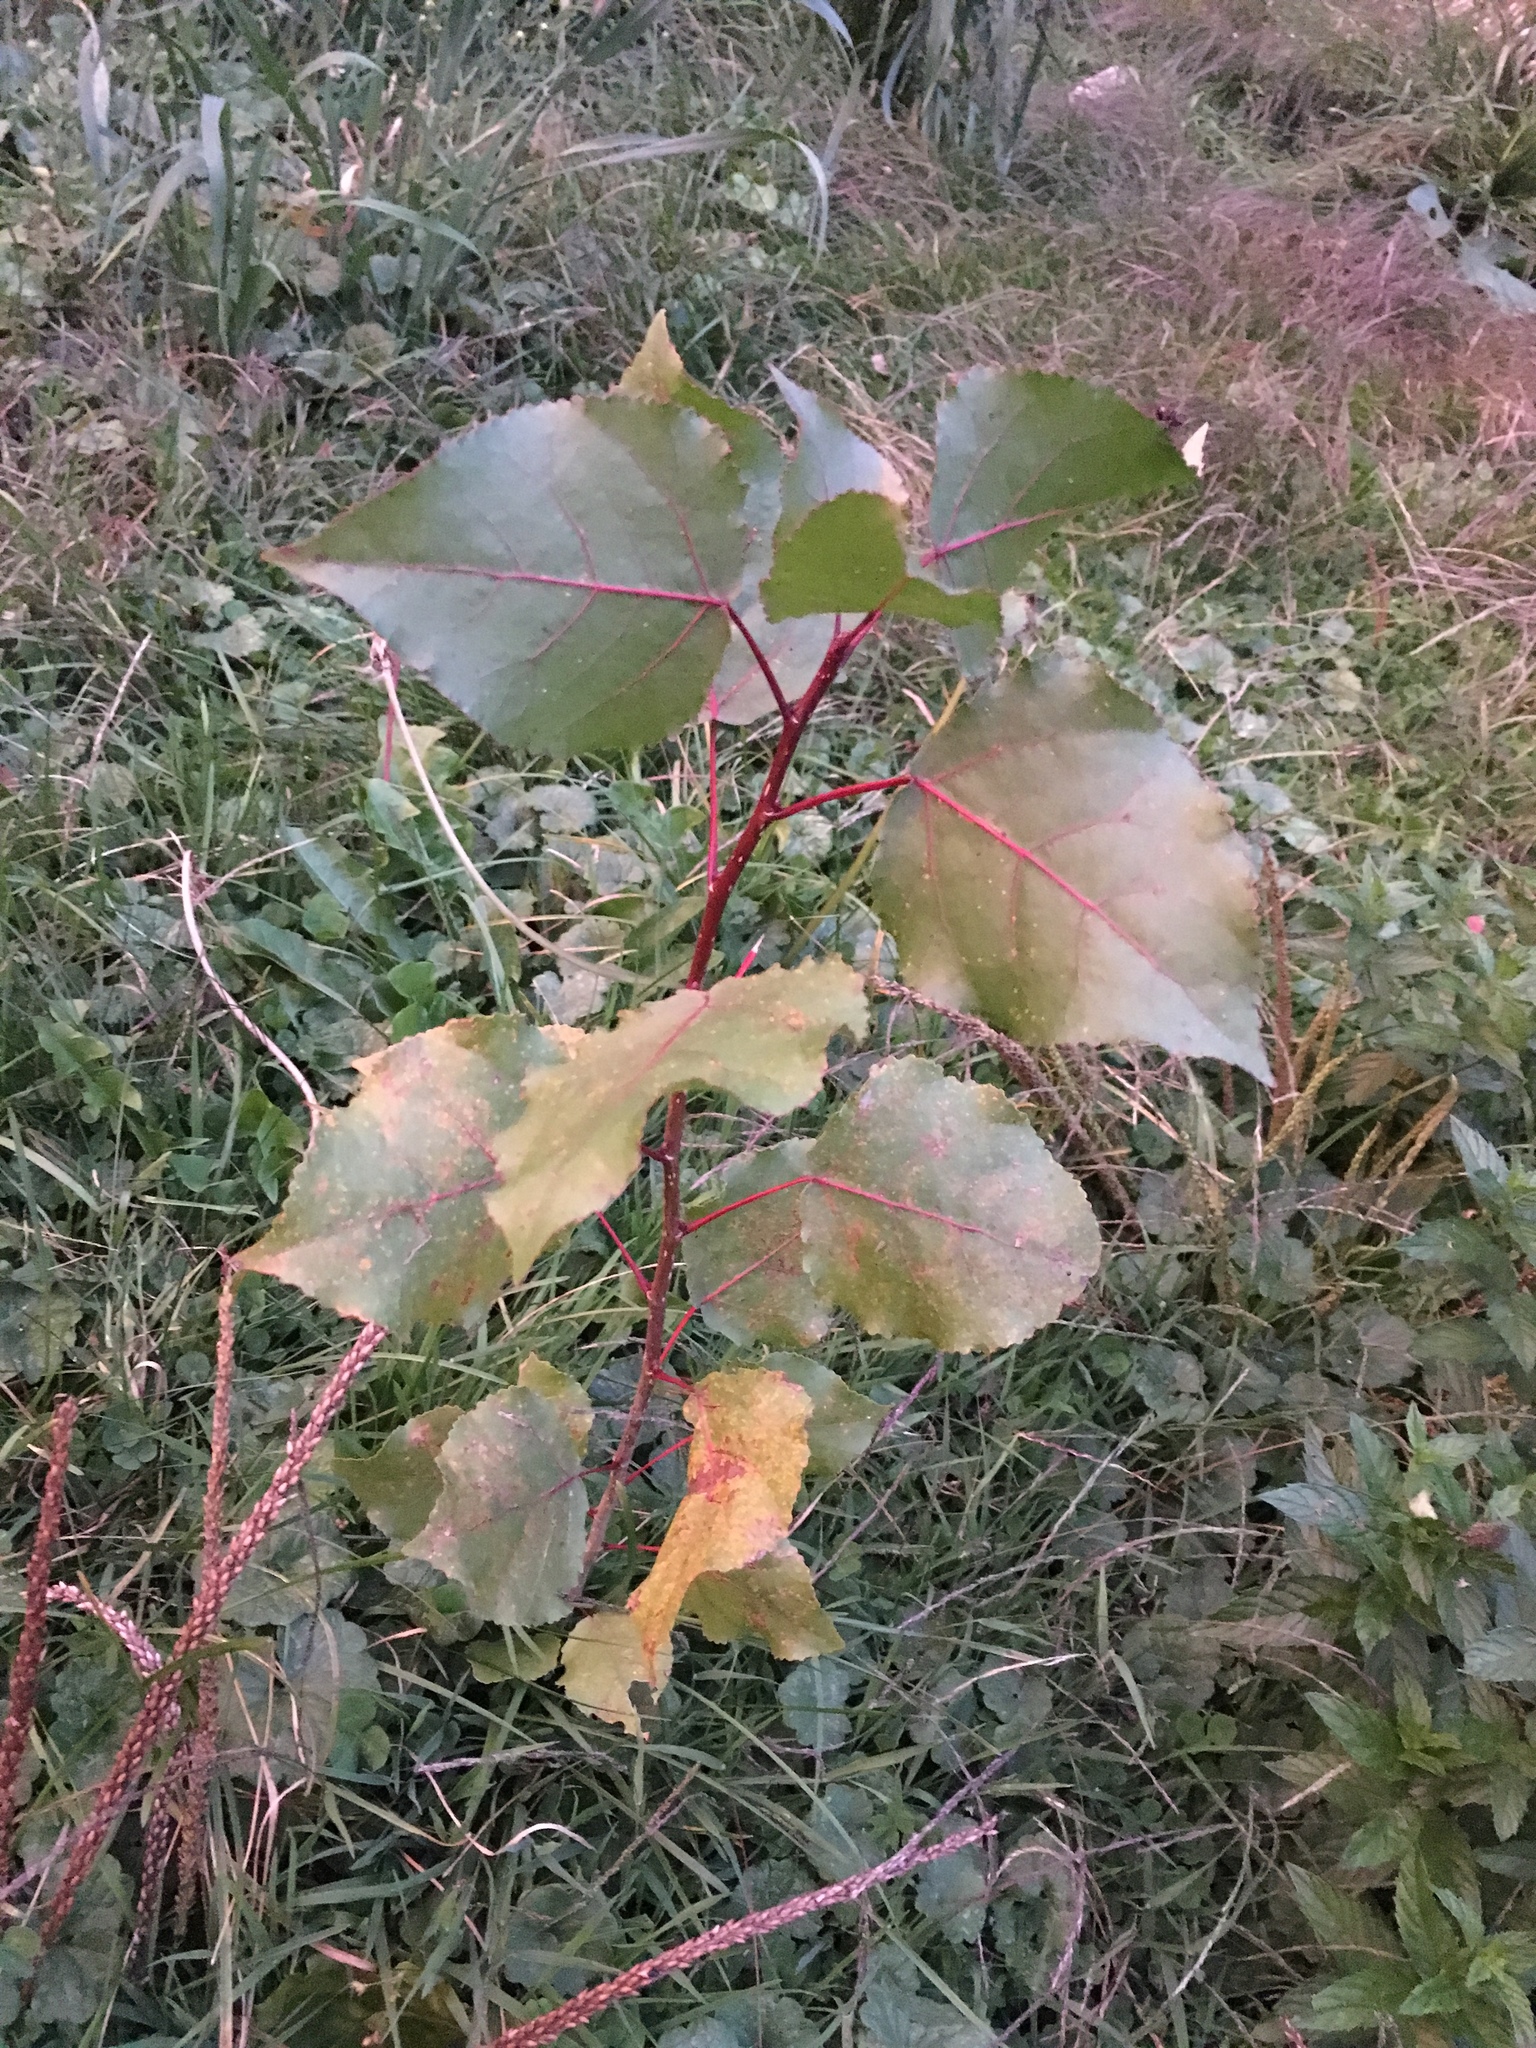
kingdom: Plantae
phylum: Tracheophyta
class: Magnoliopsida
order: Malpighiales
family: Salicaceae
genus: Populus
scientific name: Populus deltoides
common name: Eastern cottonwood
